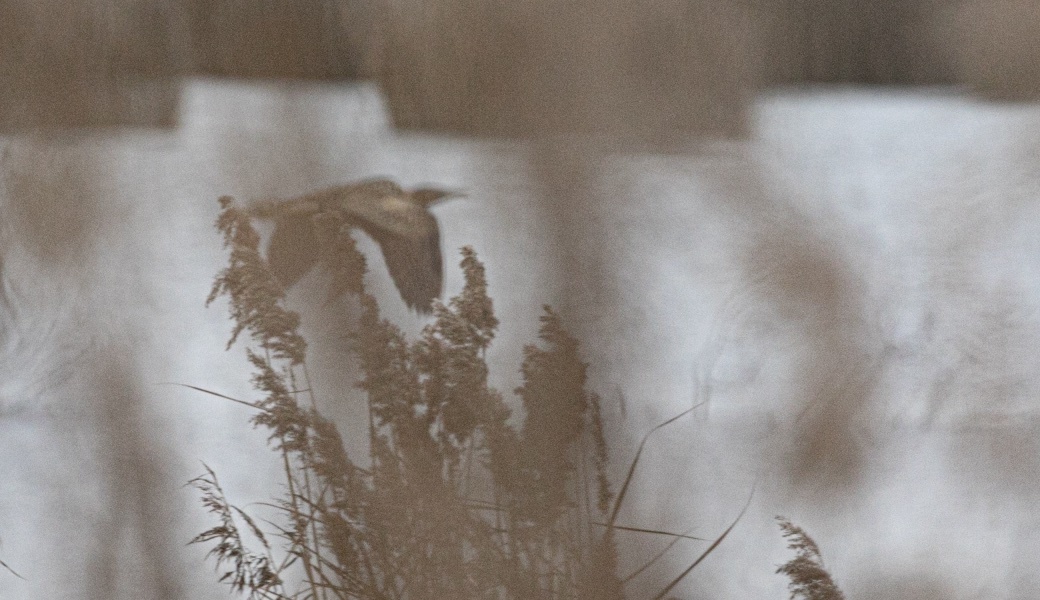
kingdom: Animalia
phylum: Chordata
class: Aves
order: Pelecaniformes
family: Ardeidae
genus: Botaurus
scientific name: Botaurus stellaris
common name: Eurasian bittern
